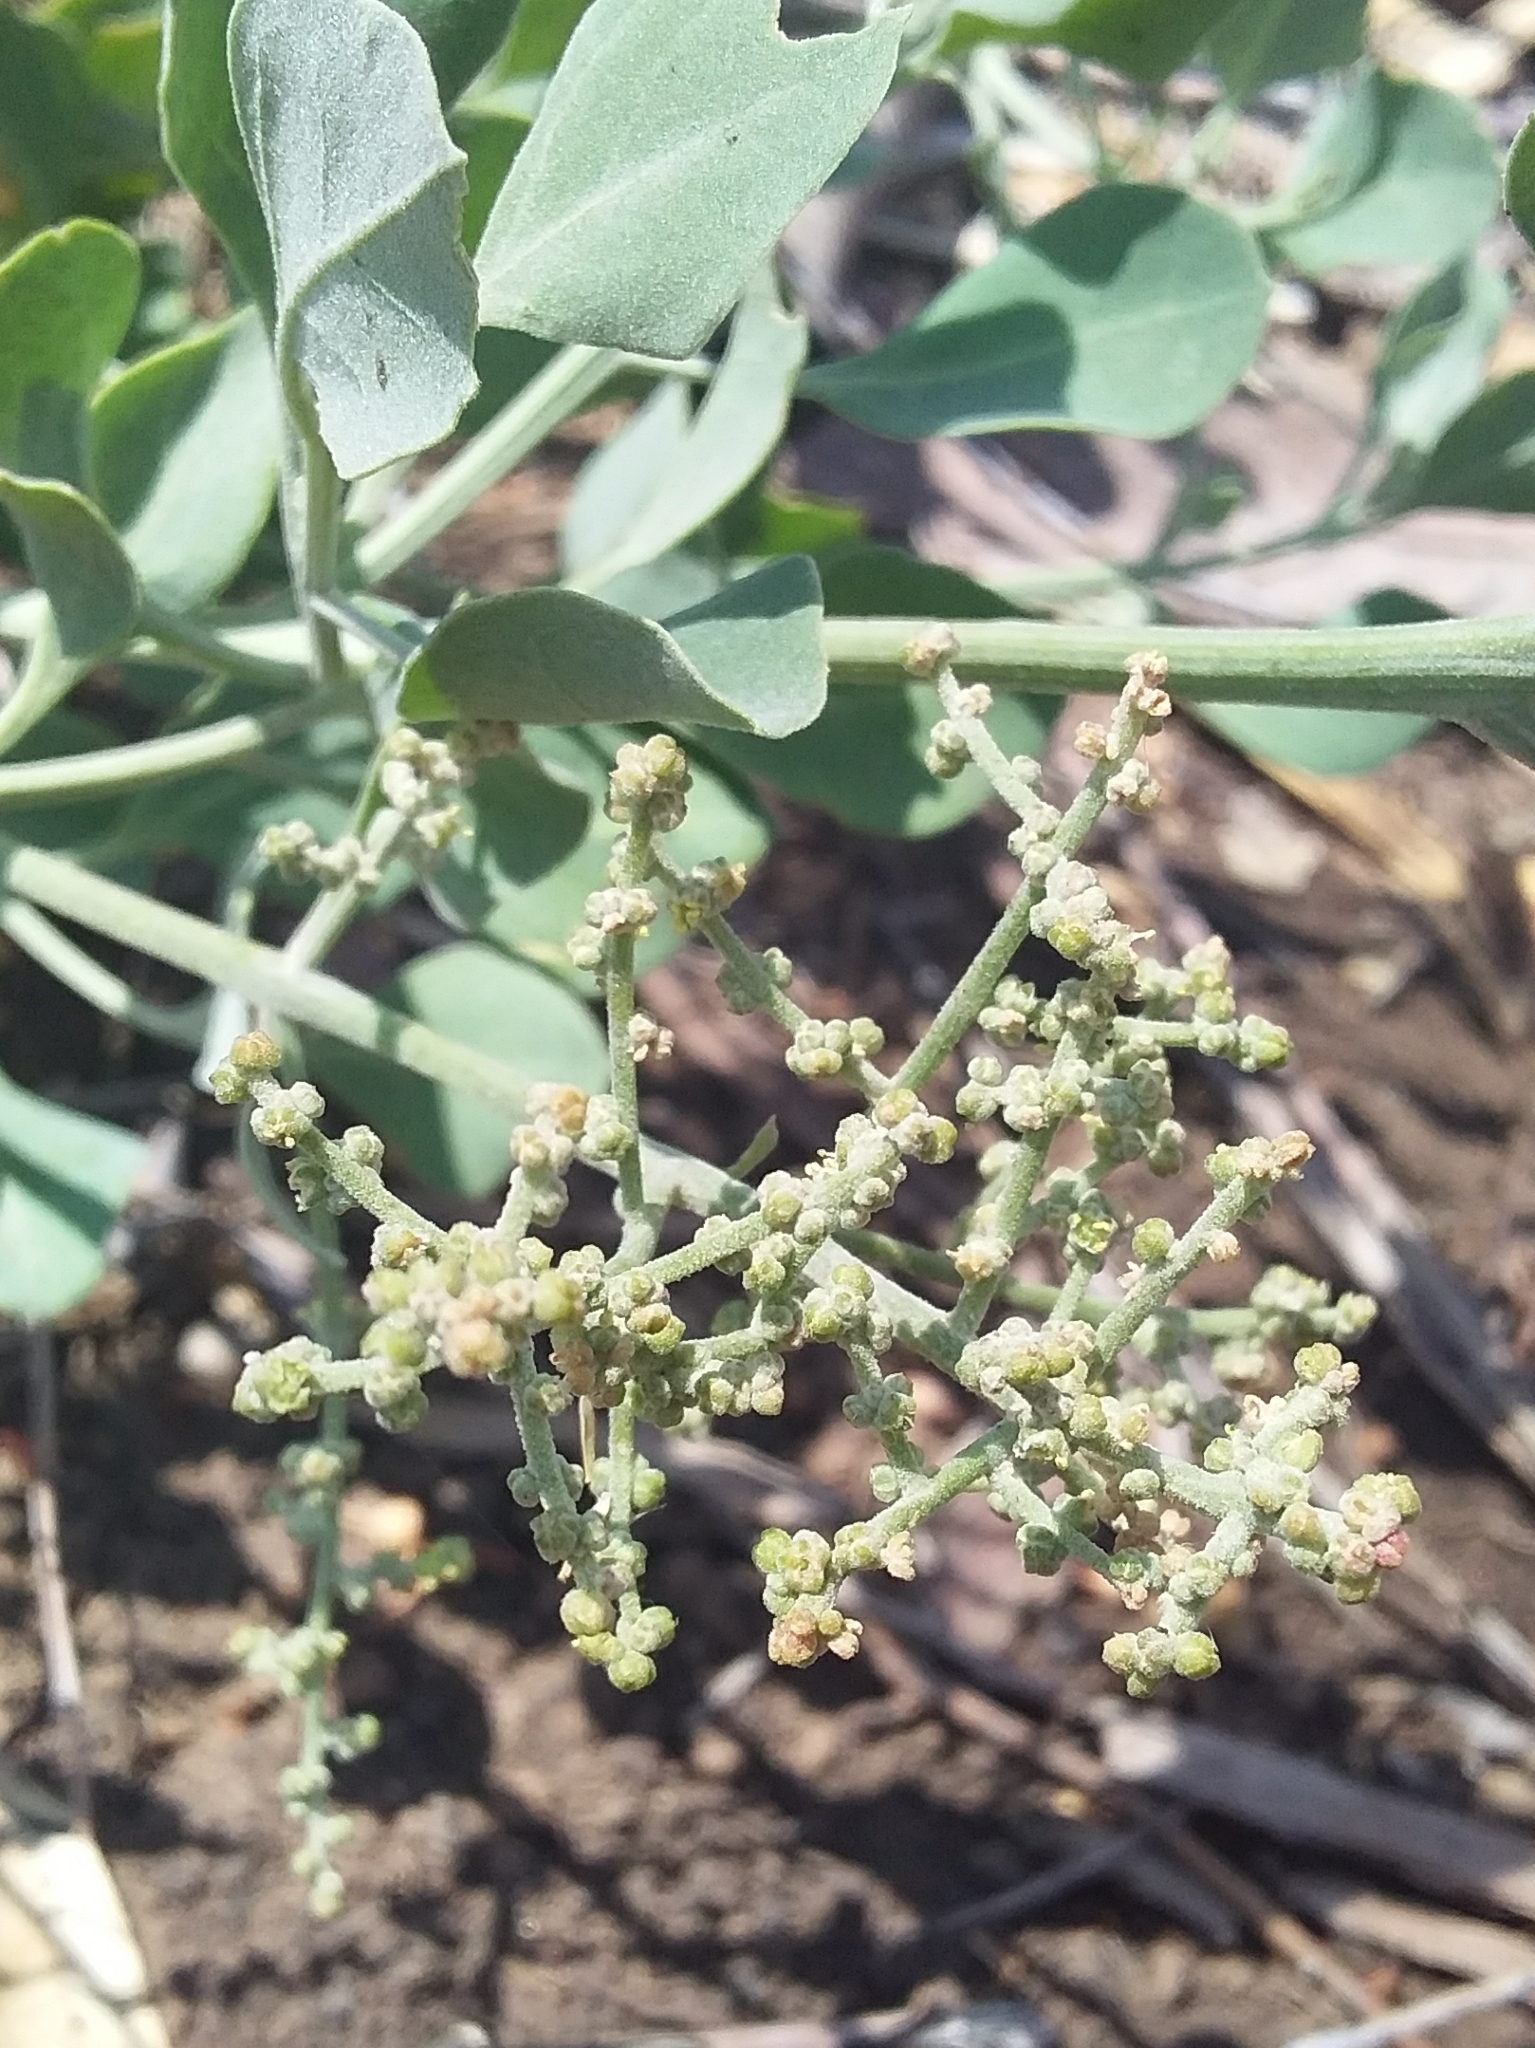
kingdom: Plantae
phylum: Tracheophyta
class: Magnoliopsida
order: Caryophyllales
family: Amaranthaceae
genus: Chenopodium
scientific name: Chenopodium parabolicum
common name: Old-man-saltbush
